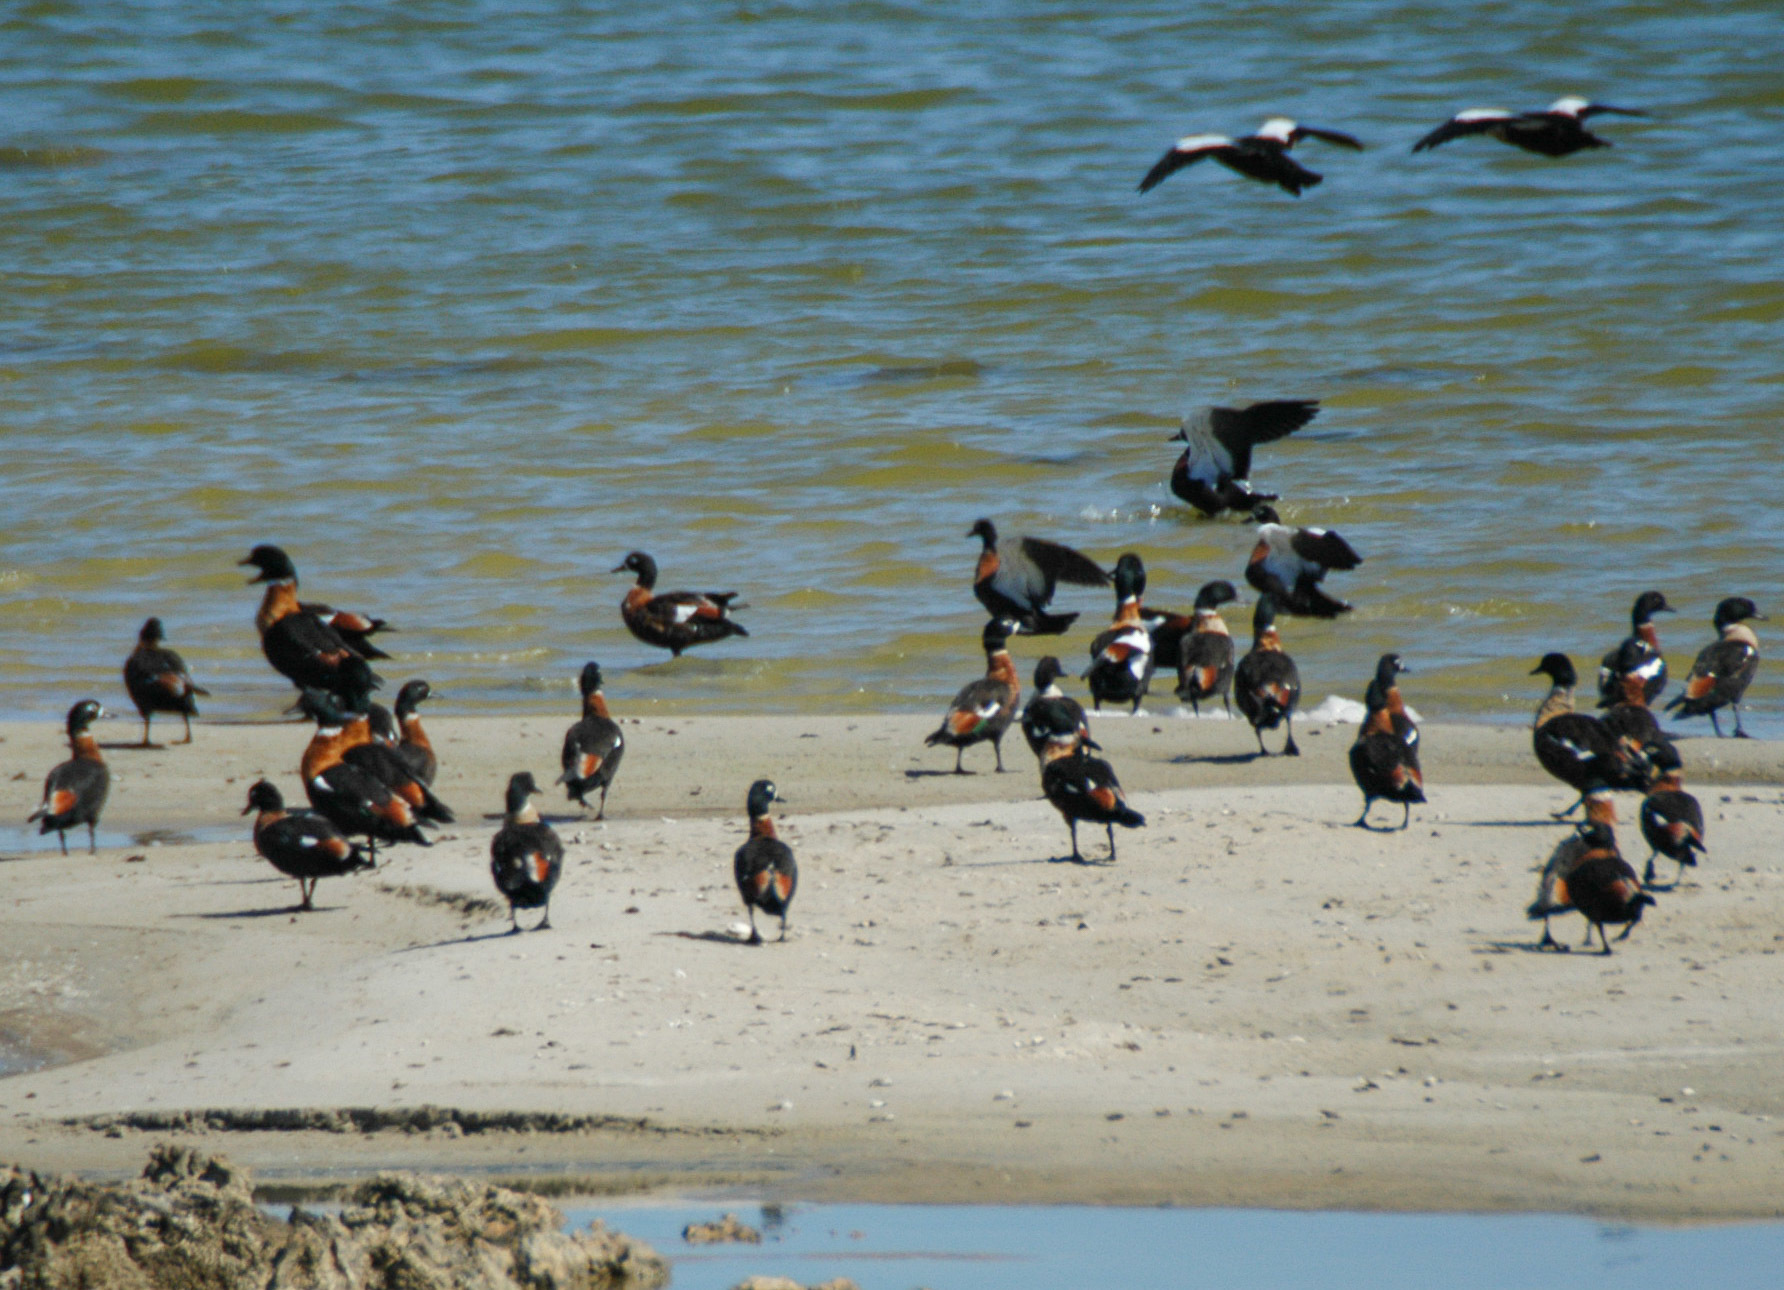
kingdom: Animalia
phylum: Chordata
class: Aves
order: Anseriformes
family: Anatidae
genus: Tadorna
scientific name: Tadorna tadornoides
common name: Australian shelduck
